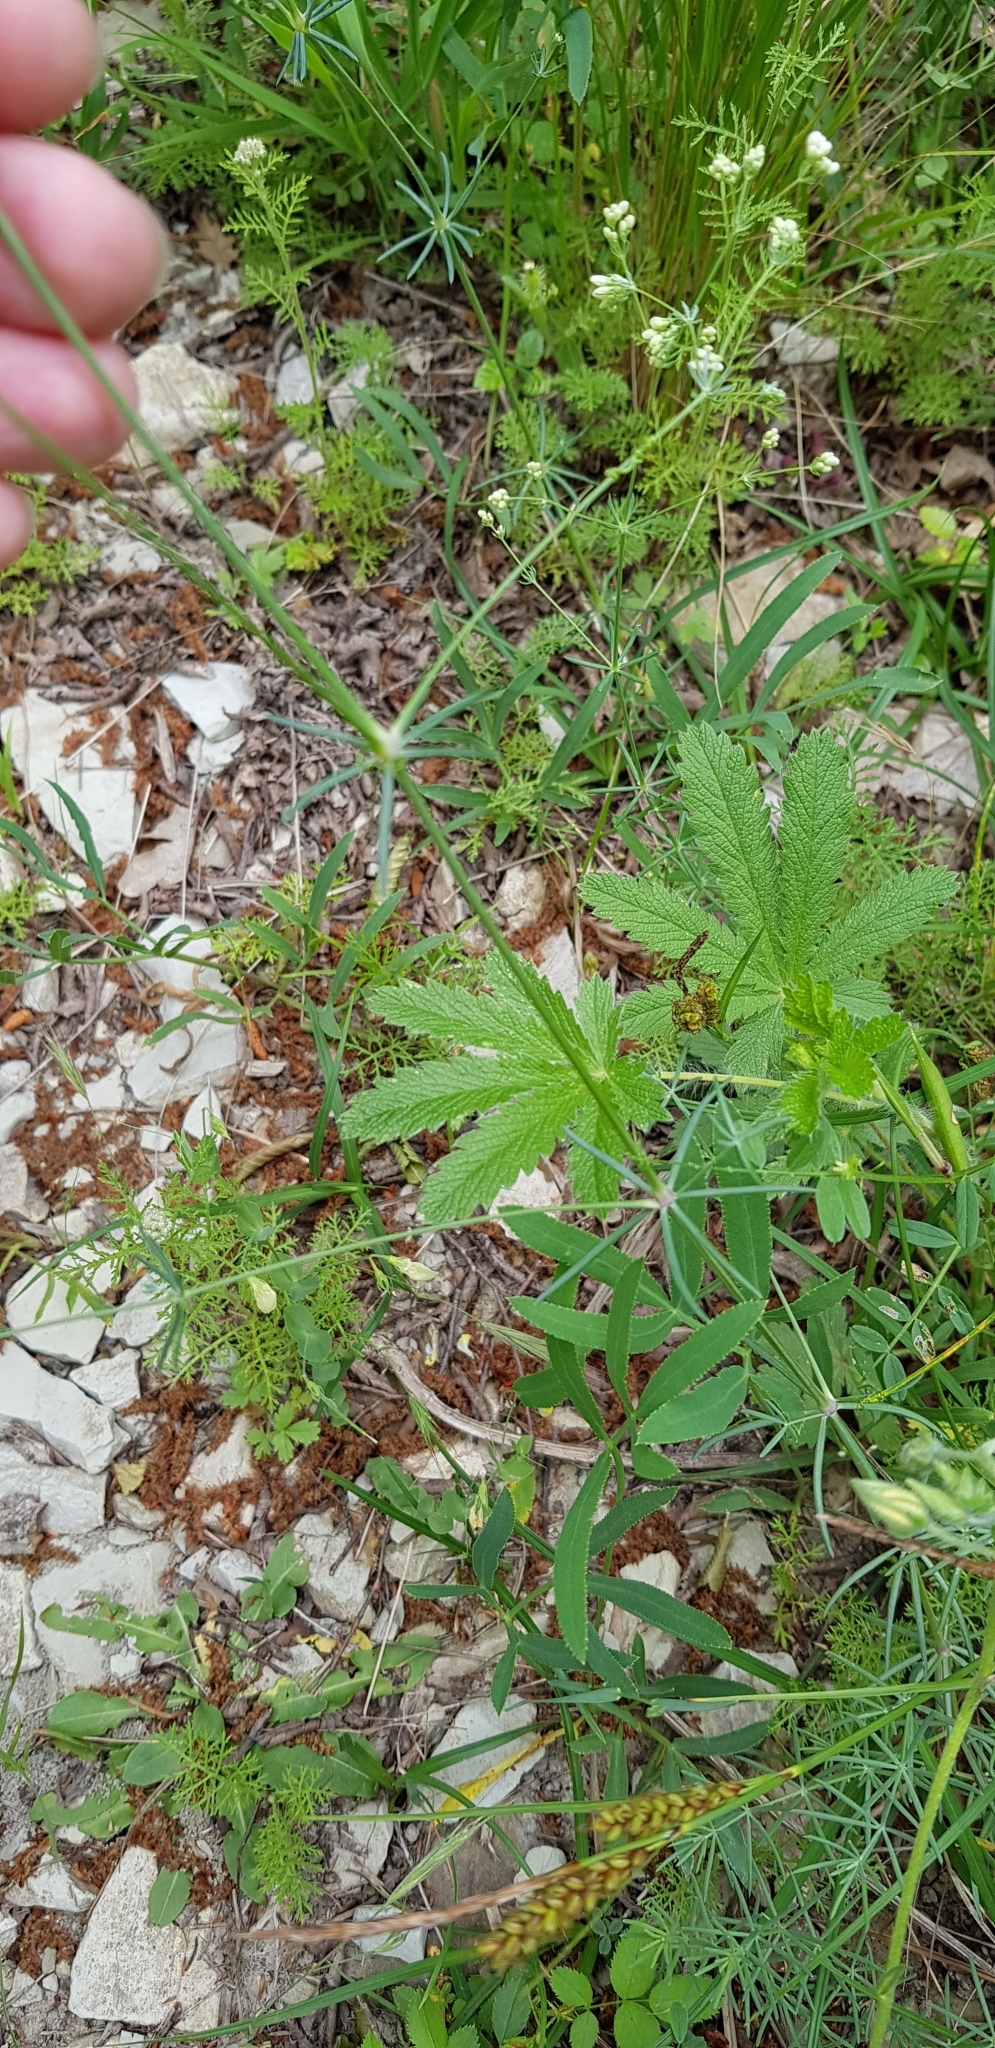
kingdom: Plantae
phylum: Tracheophyta
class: Magnoliopsida
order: Gentianales
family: Rubiaceae
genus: Galium
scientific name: Galium xeroticum
